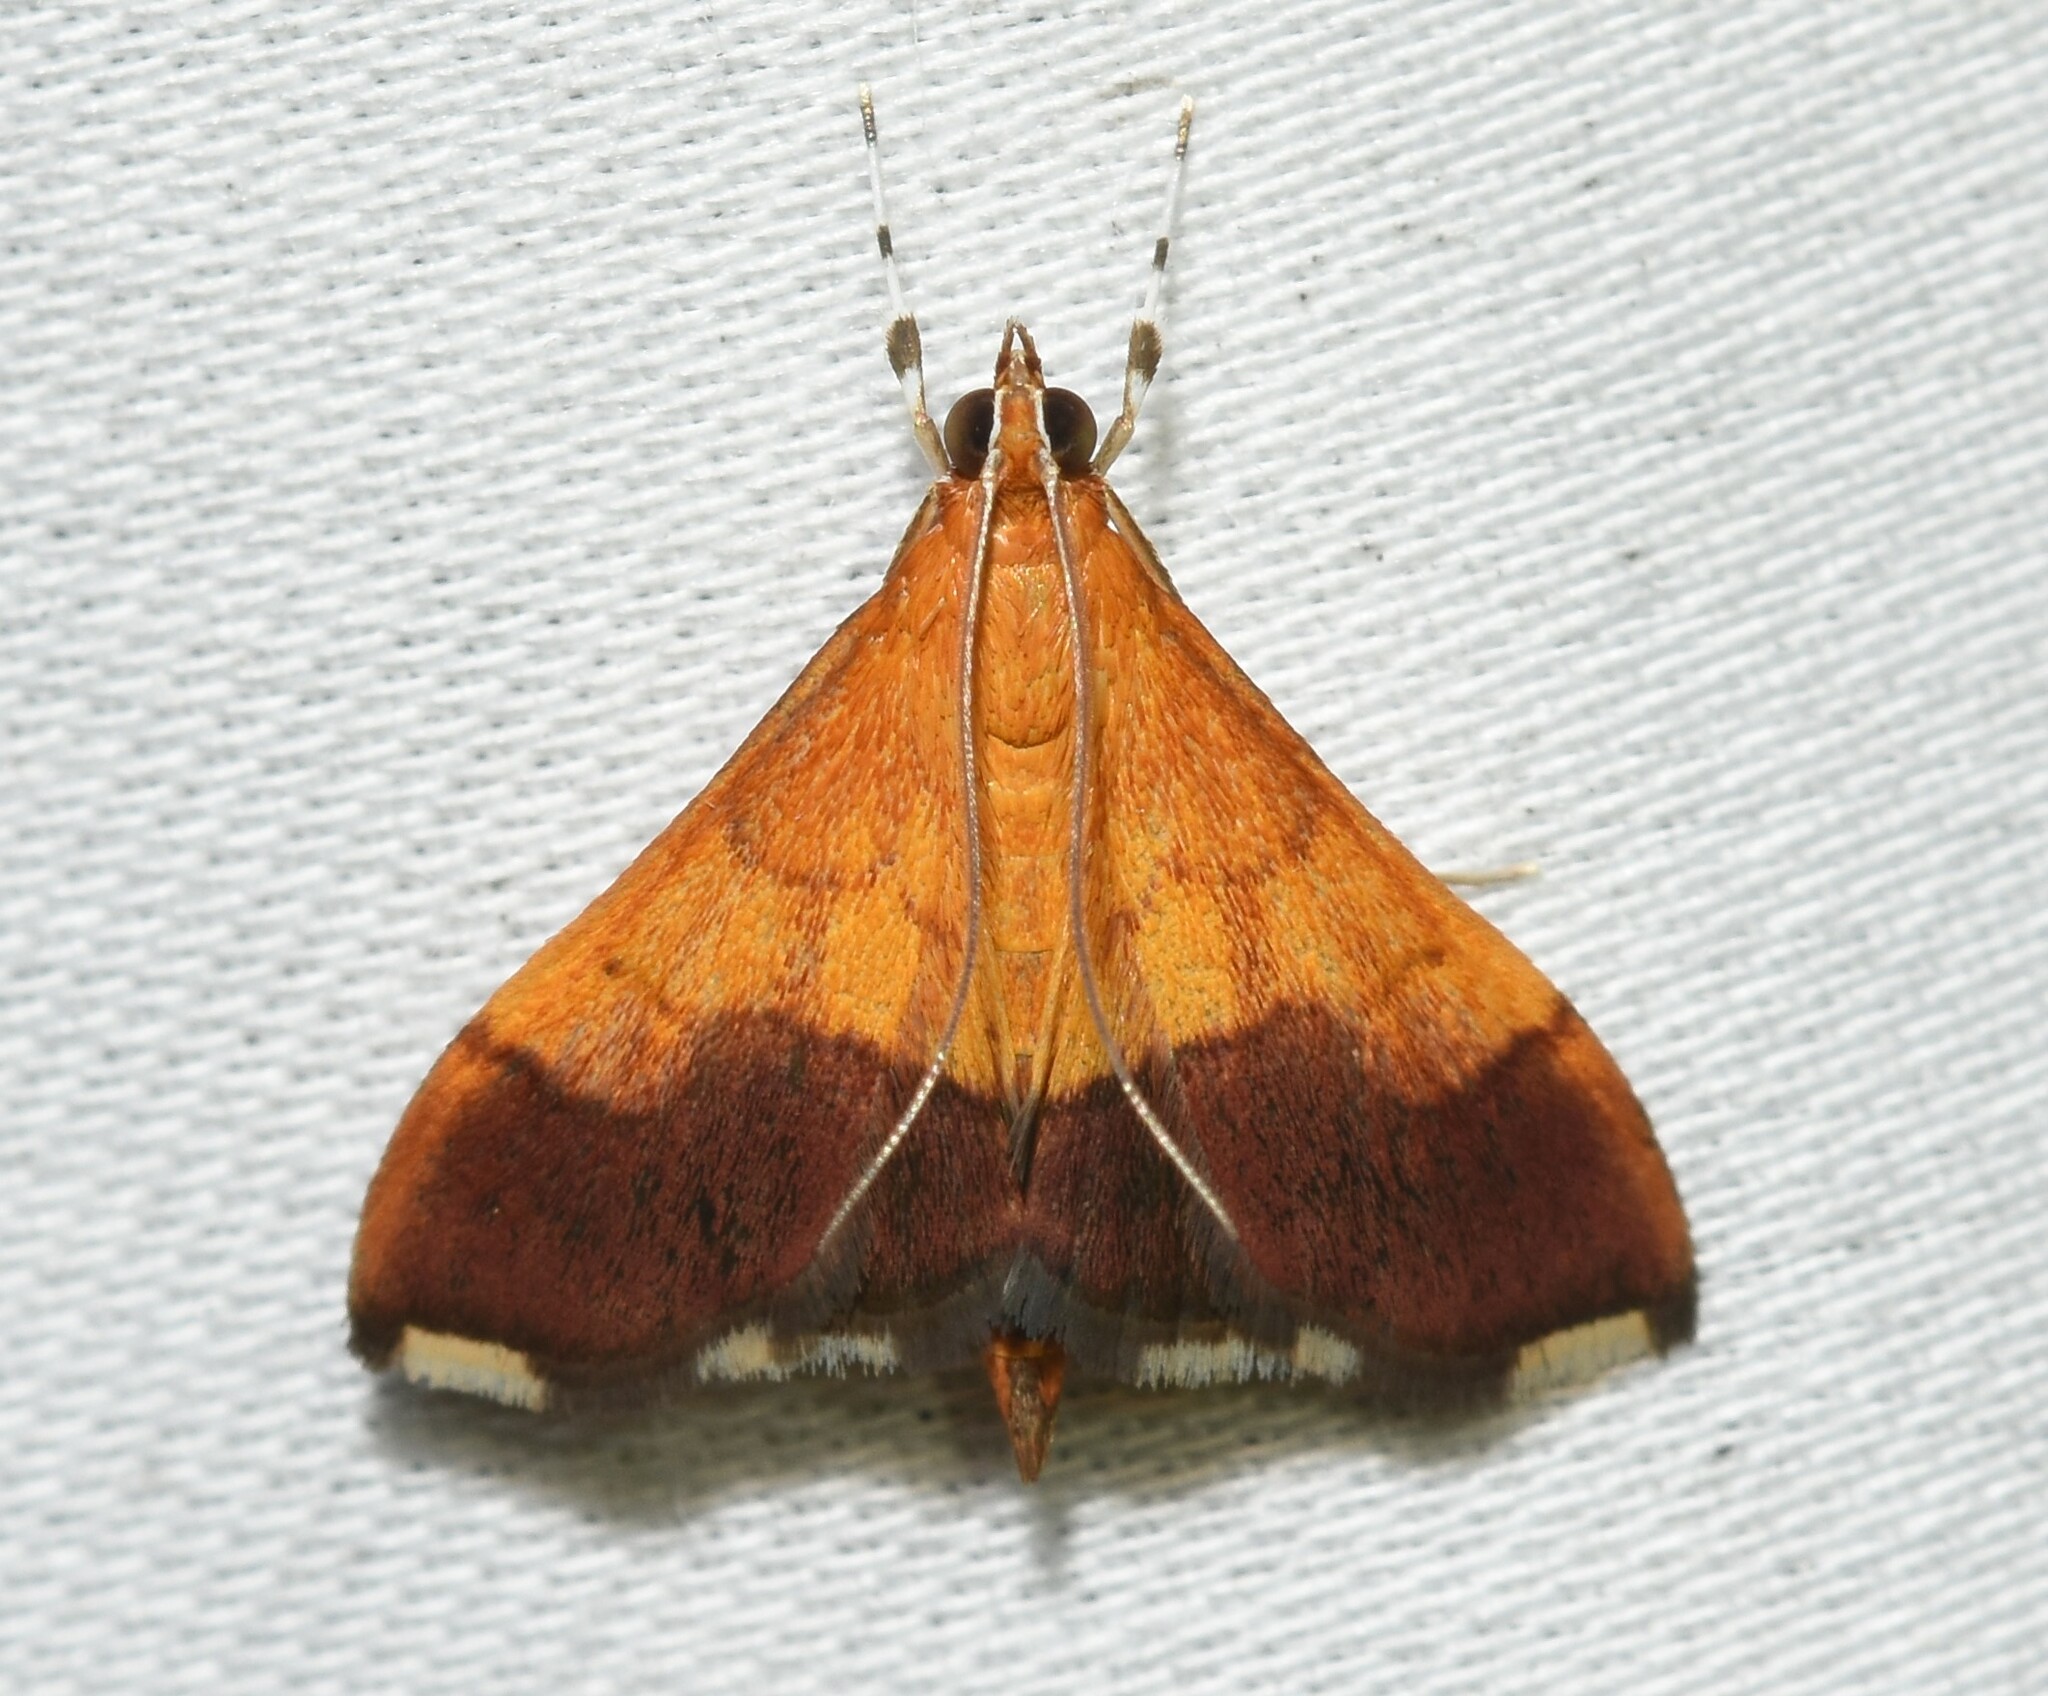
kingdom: Animalia
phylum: Arthropoda
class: Insecta
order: Lepidoptera
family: Crambidae
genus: Pyrausta
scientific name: Pyrausta bicoloralis
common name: Bicolored pyrausta moth
